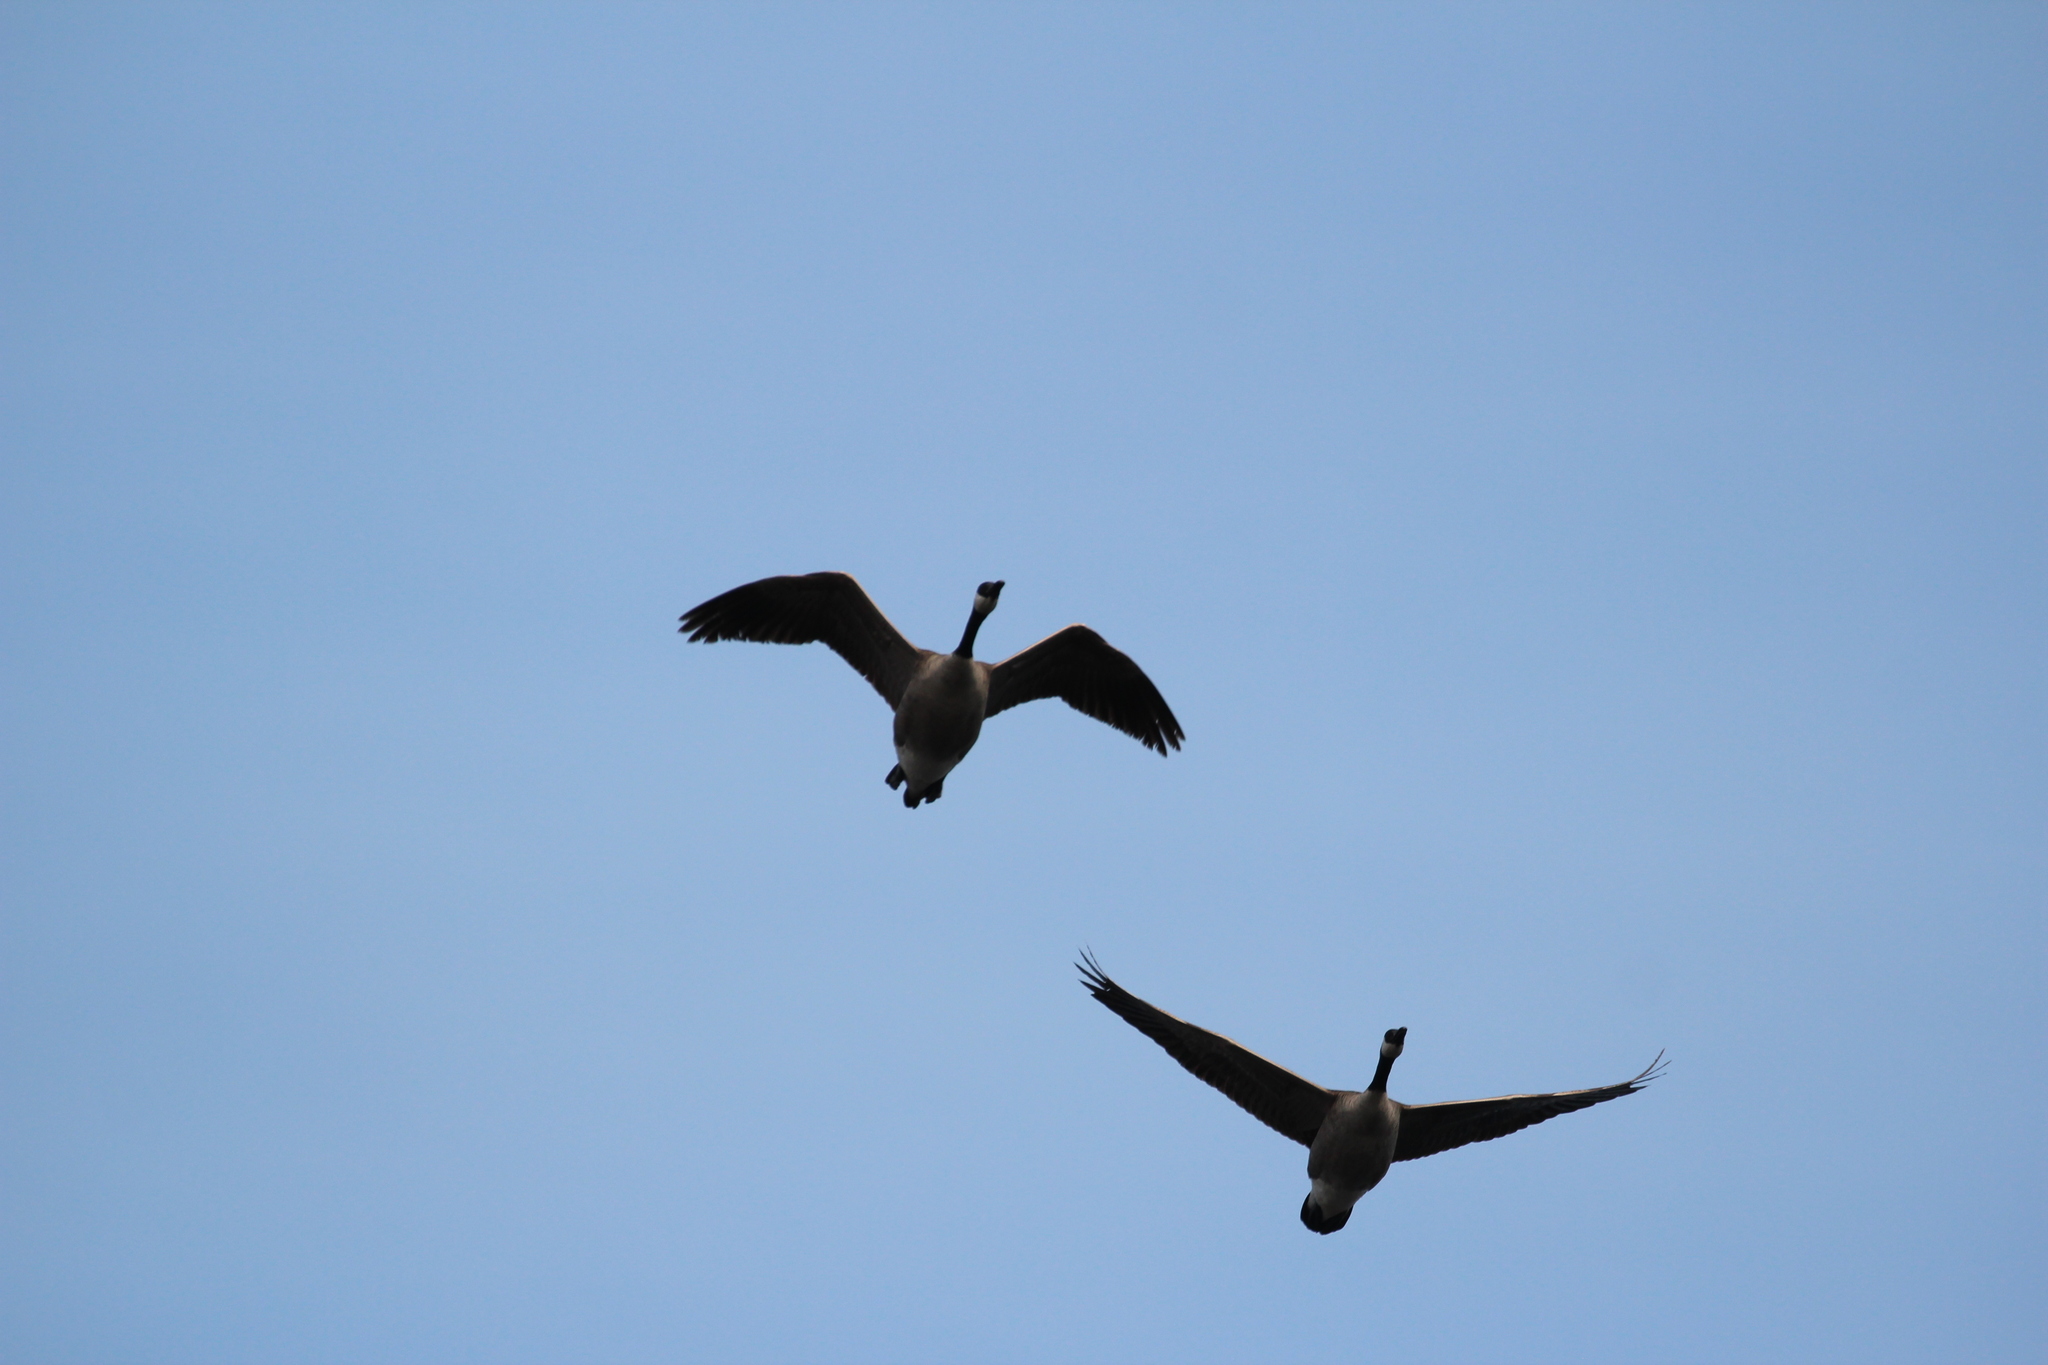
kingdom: Animalia
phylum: Chordata
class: Aves
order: Anseriformes
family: Anatidae
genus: Branta
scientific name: Branta canadensis
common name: Canada goose
